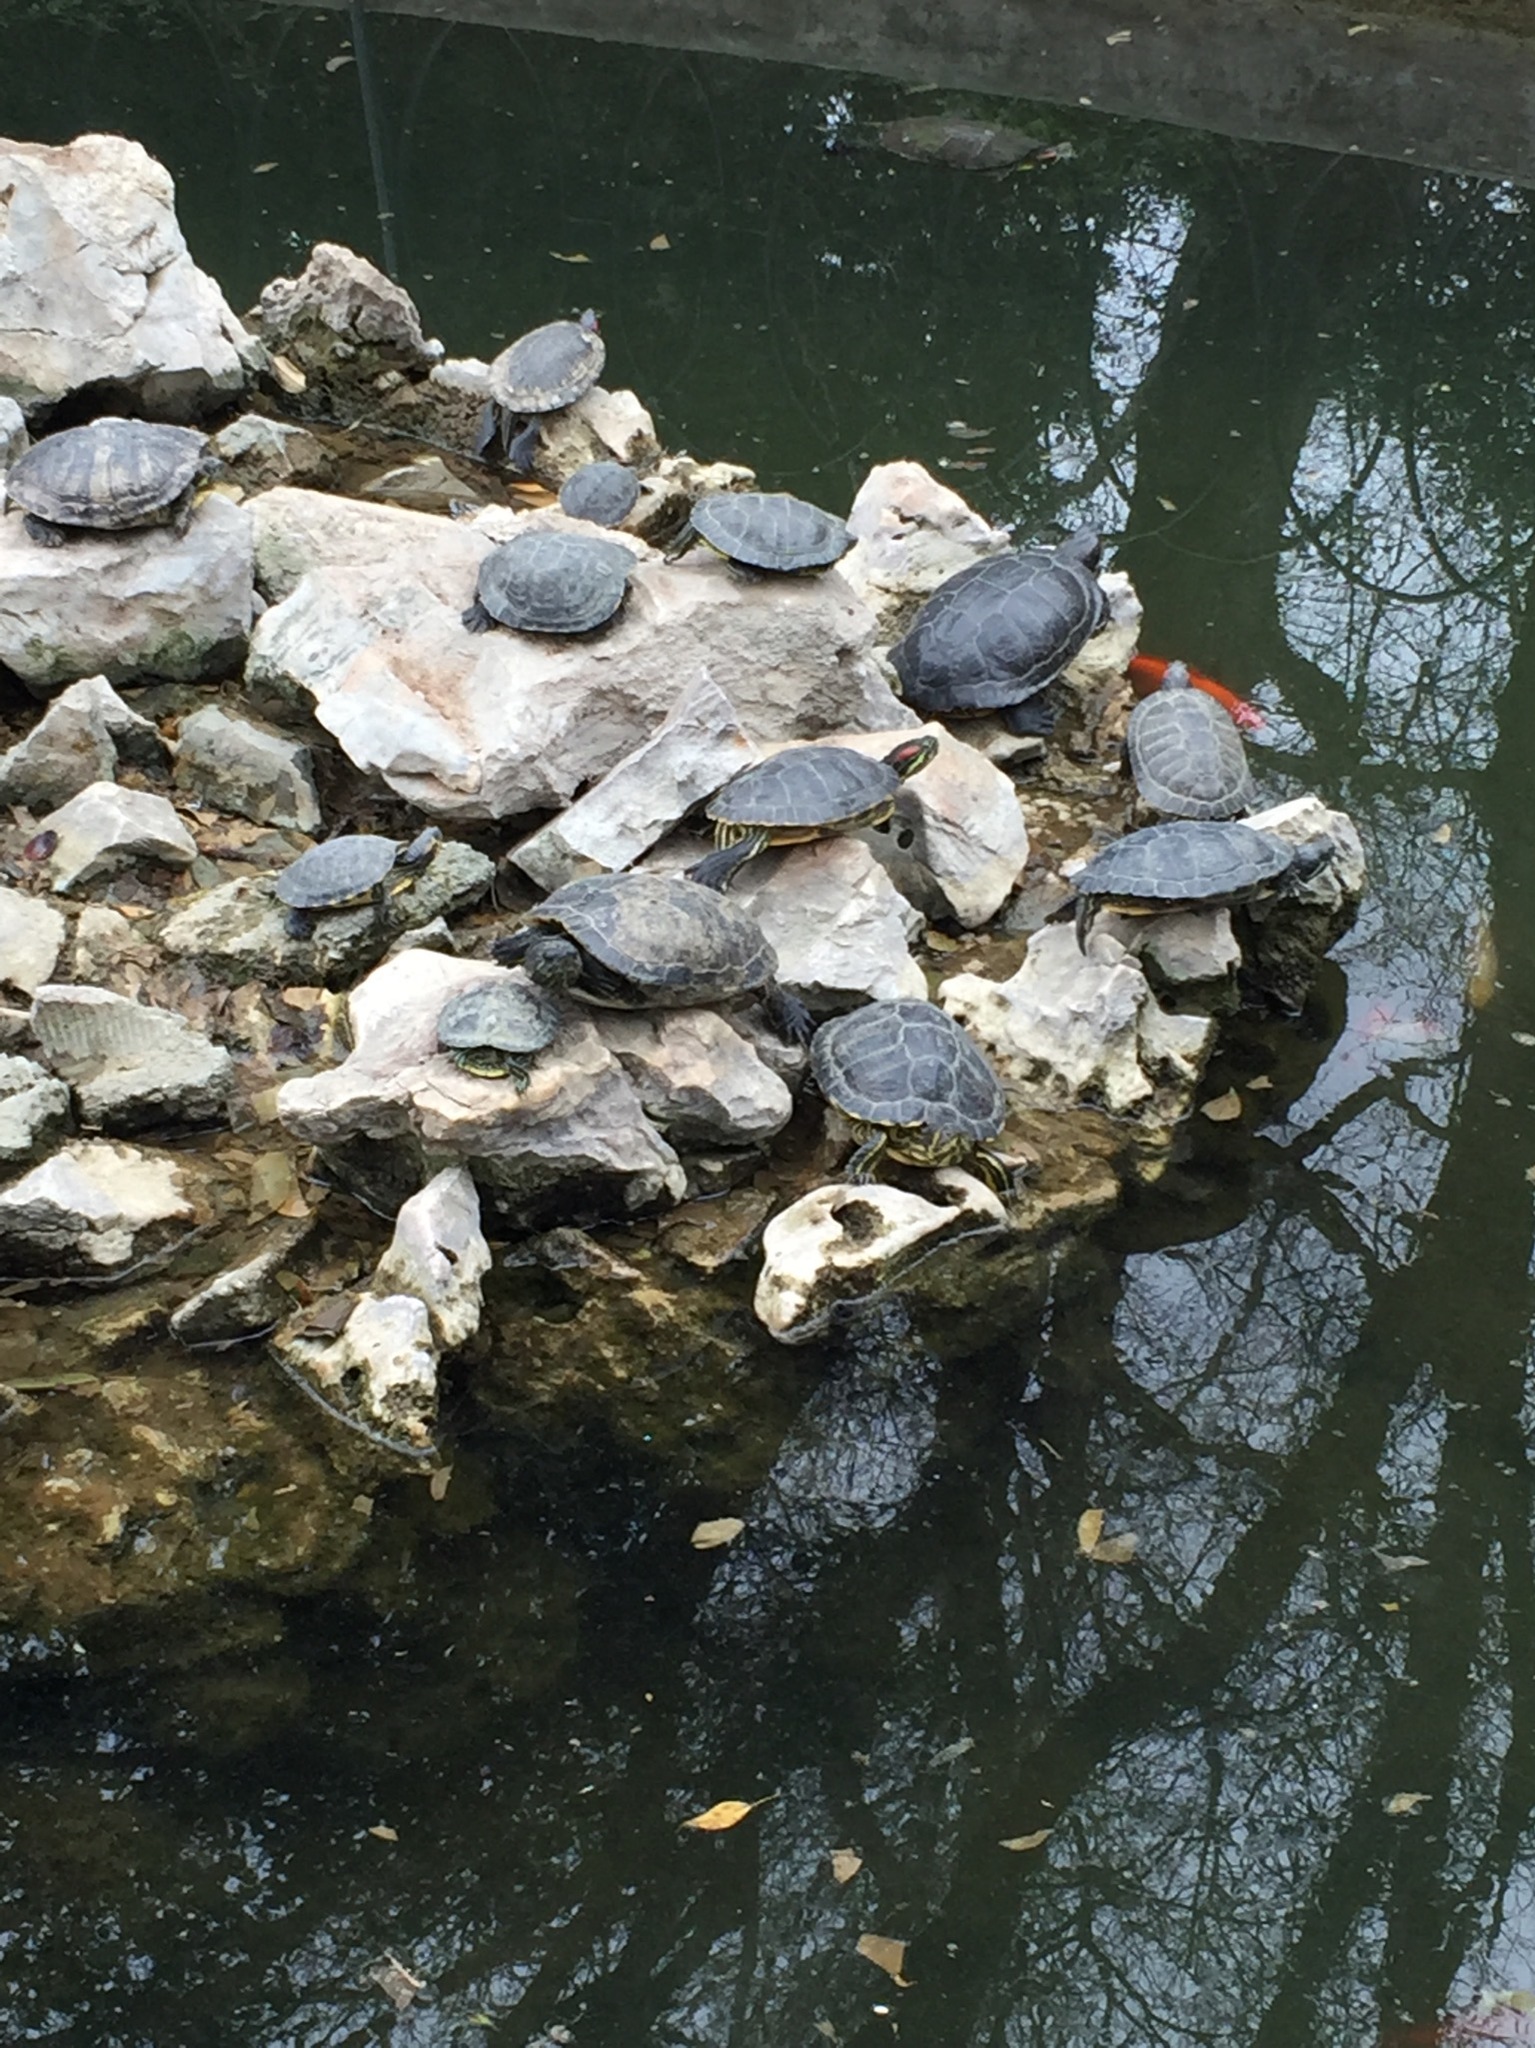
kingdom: Animalia
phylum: Chordata
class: Testudines
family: Emydidae
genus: Trachemys
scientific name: Trachemys scripta
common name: Slider
